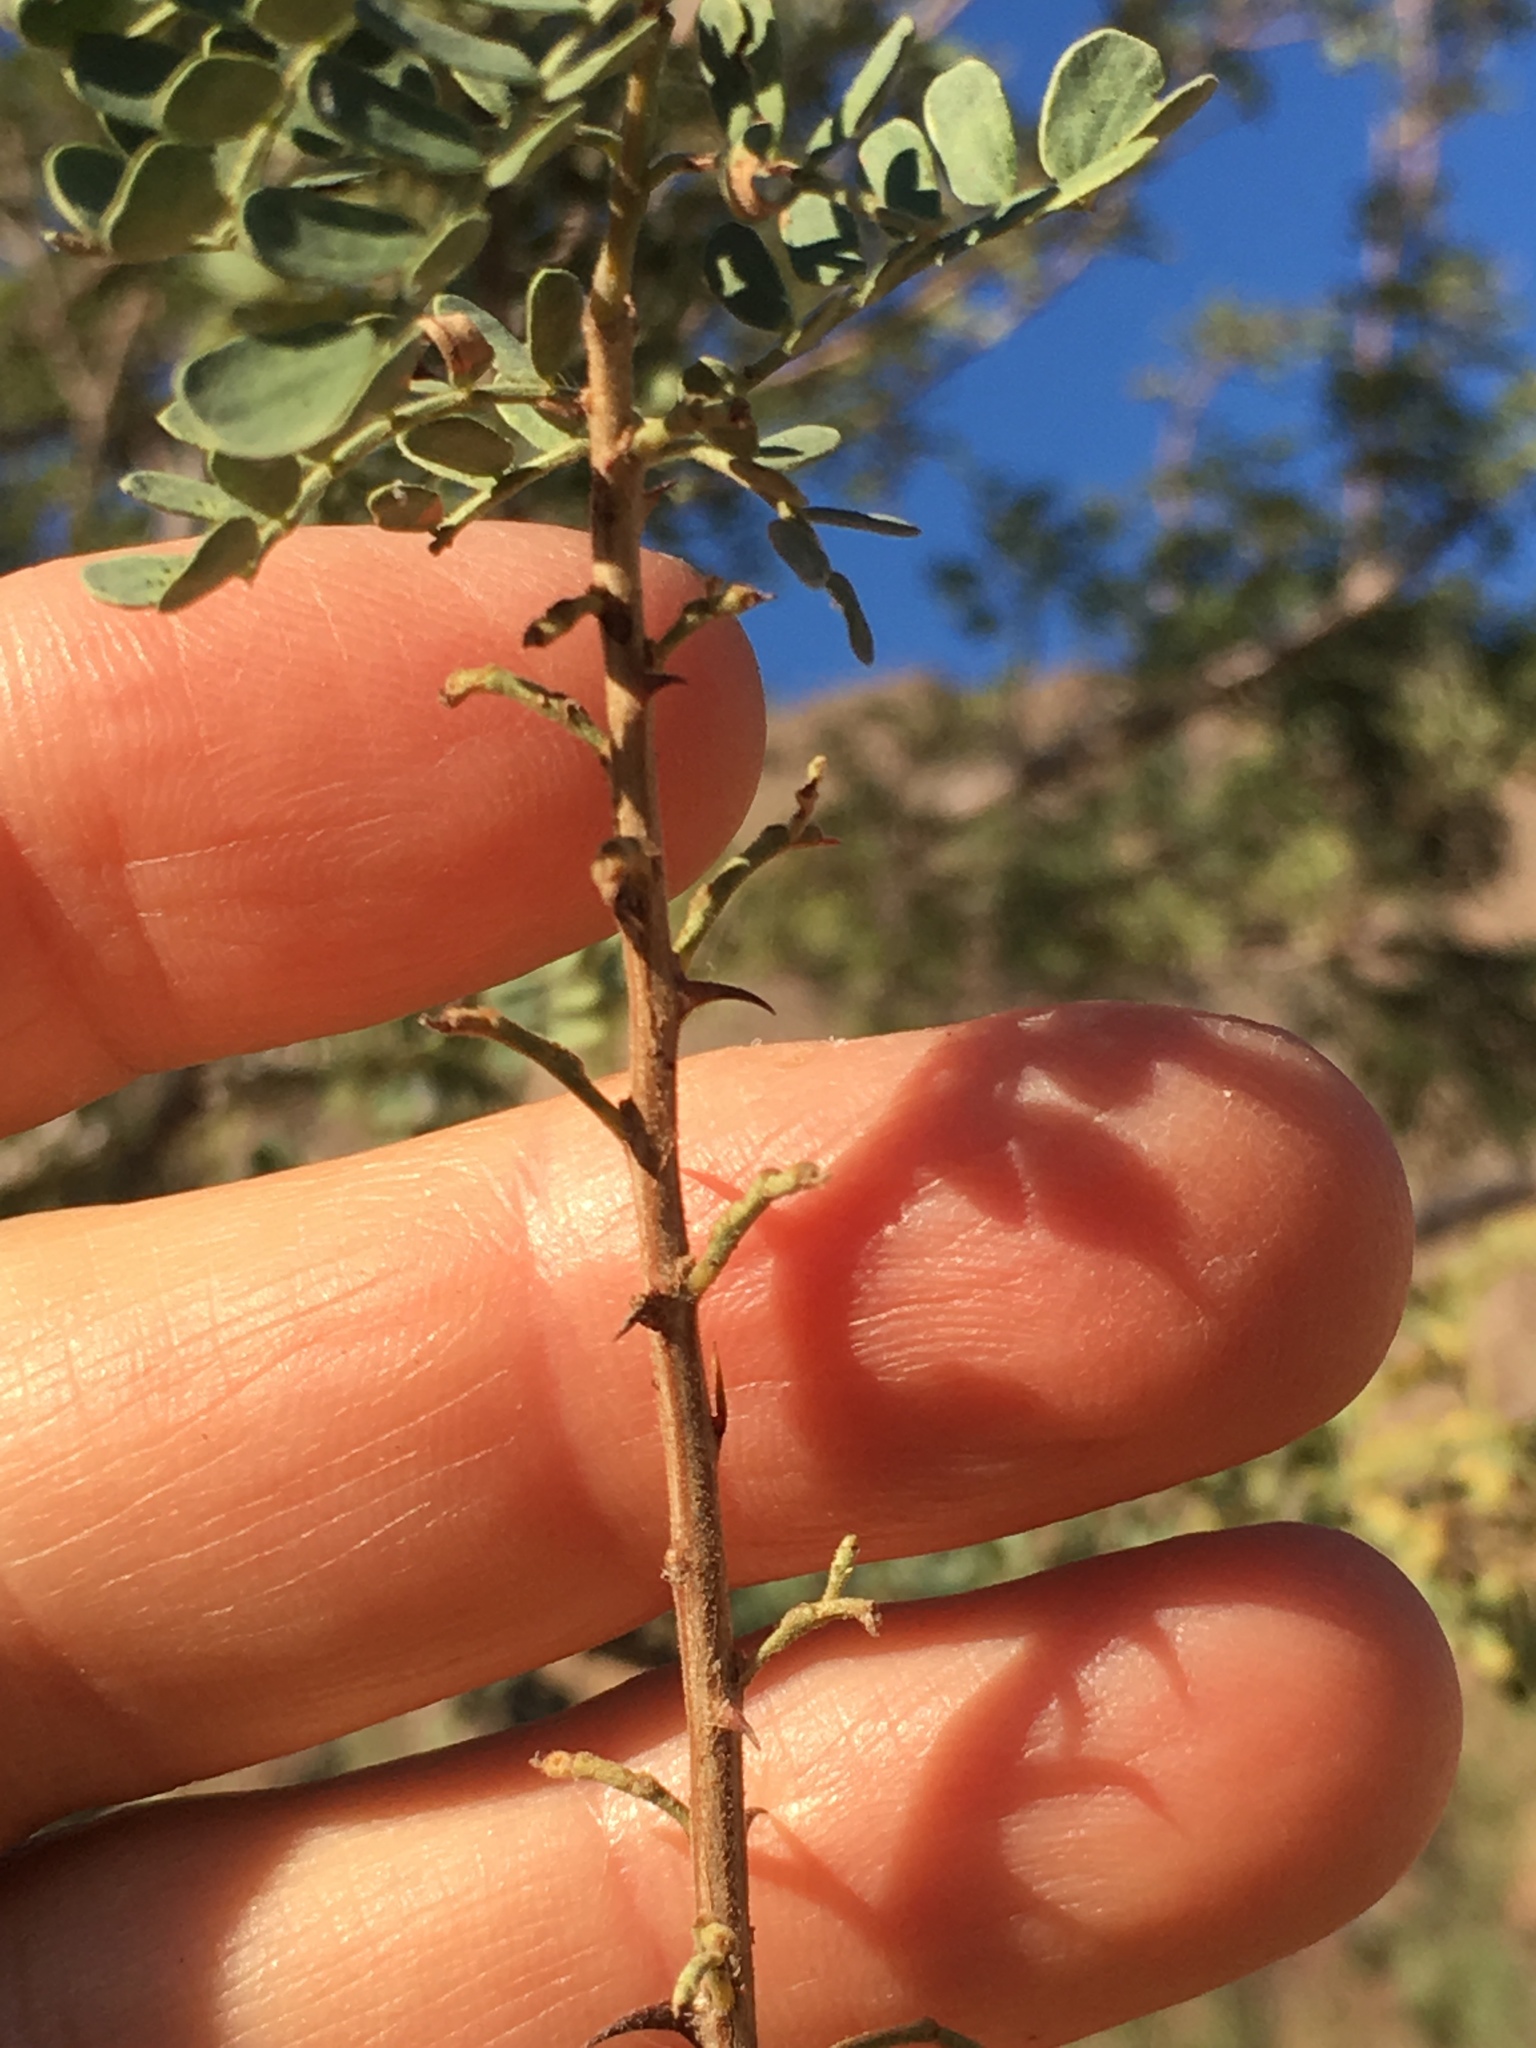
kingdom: Plantae
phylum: Tracheophyta
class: Magnoliopsida
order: Fabales
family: Fabaceae
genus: Senegalia
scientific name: Senegalia greggii
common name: Texas-mimosa
